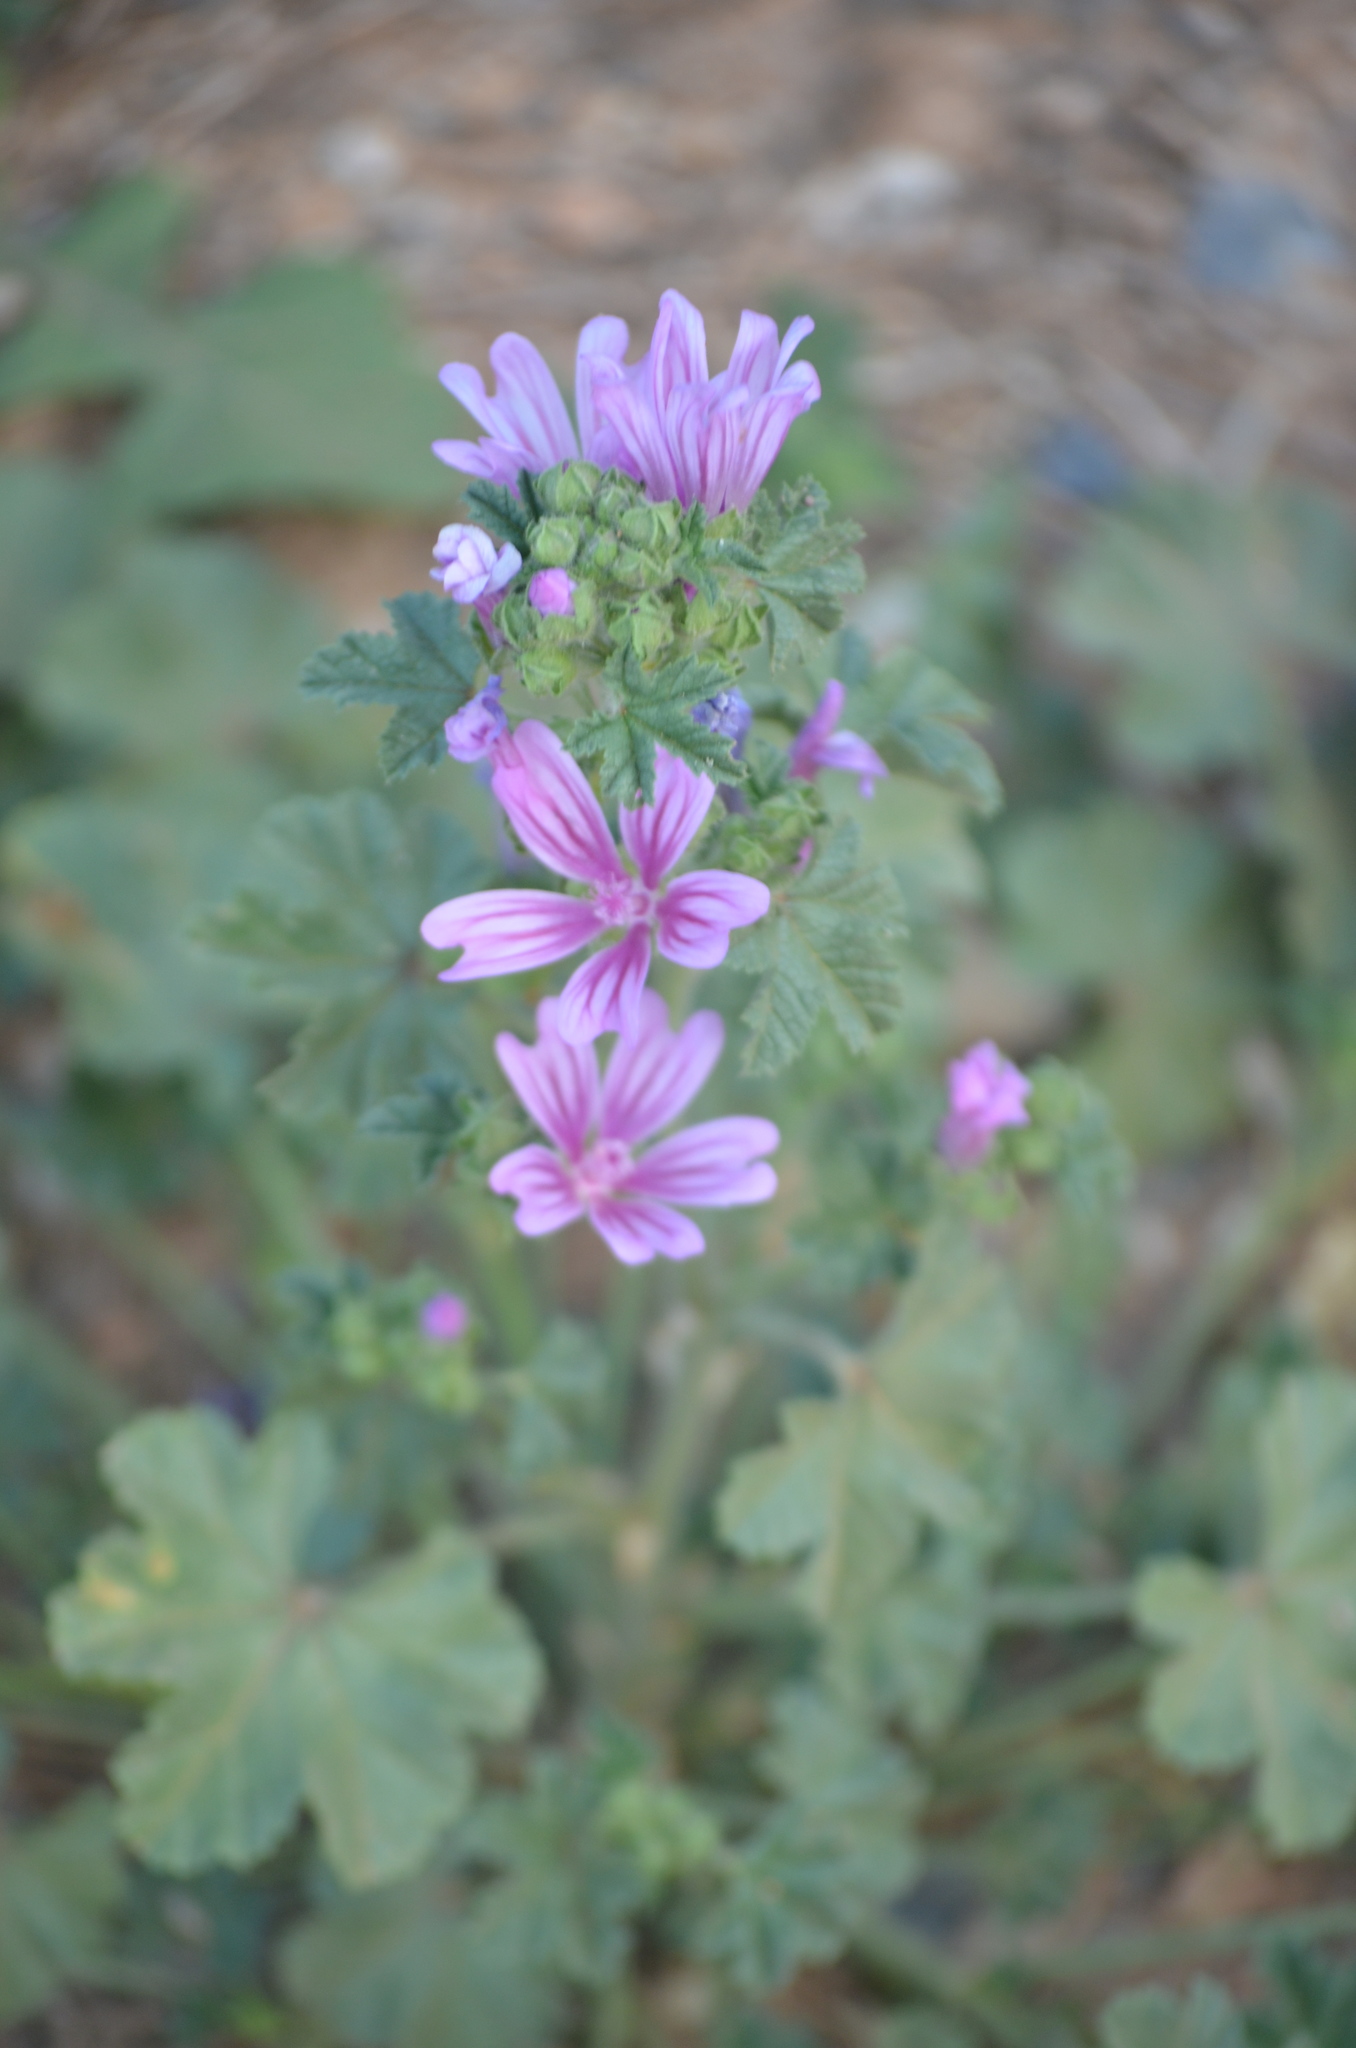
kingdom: Plantae
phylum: Tracheophyta
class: Magnoliopsida
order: Malvales
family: Malvaceae
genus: Malva
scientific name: Malva sylvestris
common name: Common mallow
